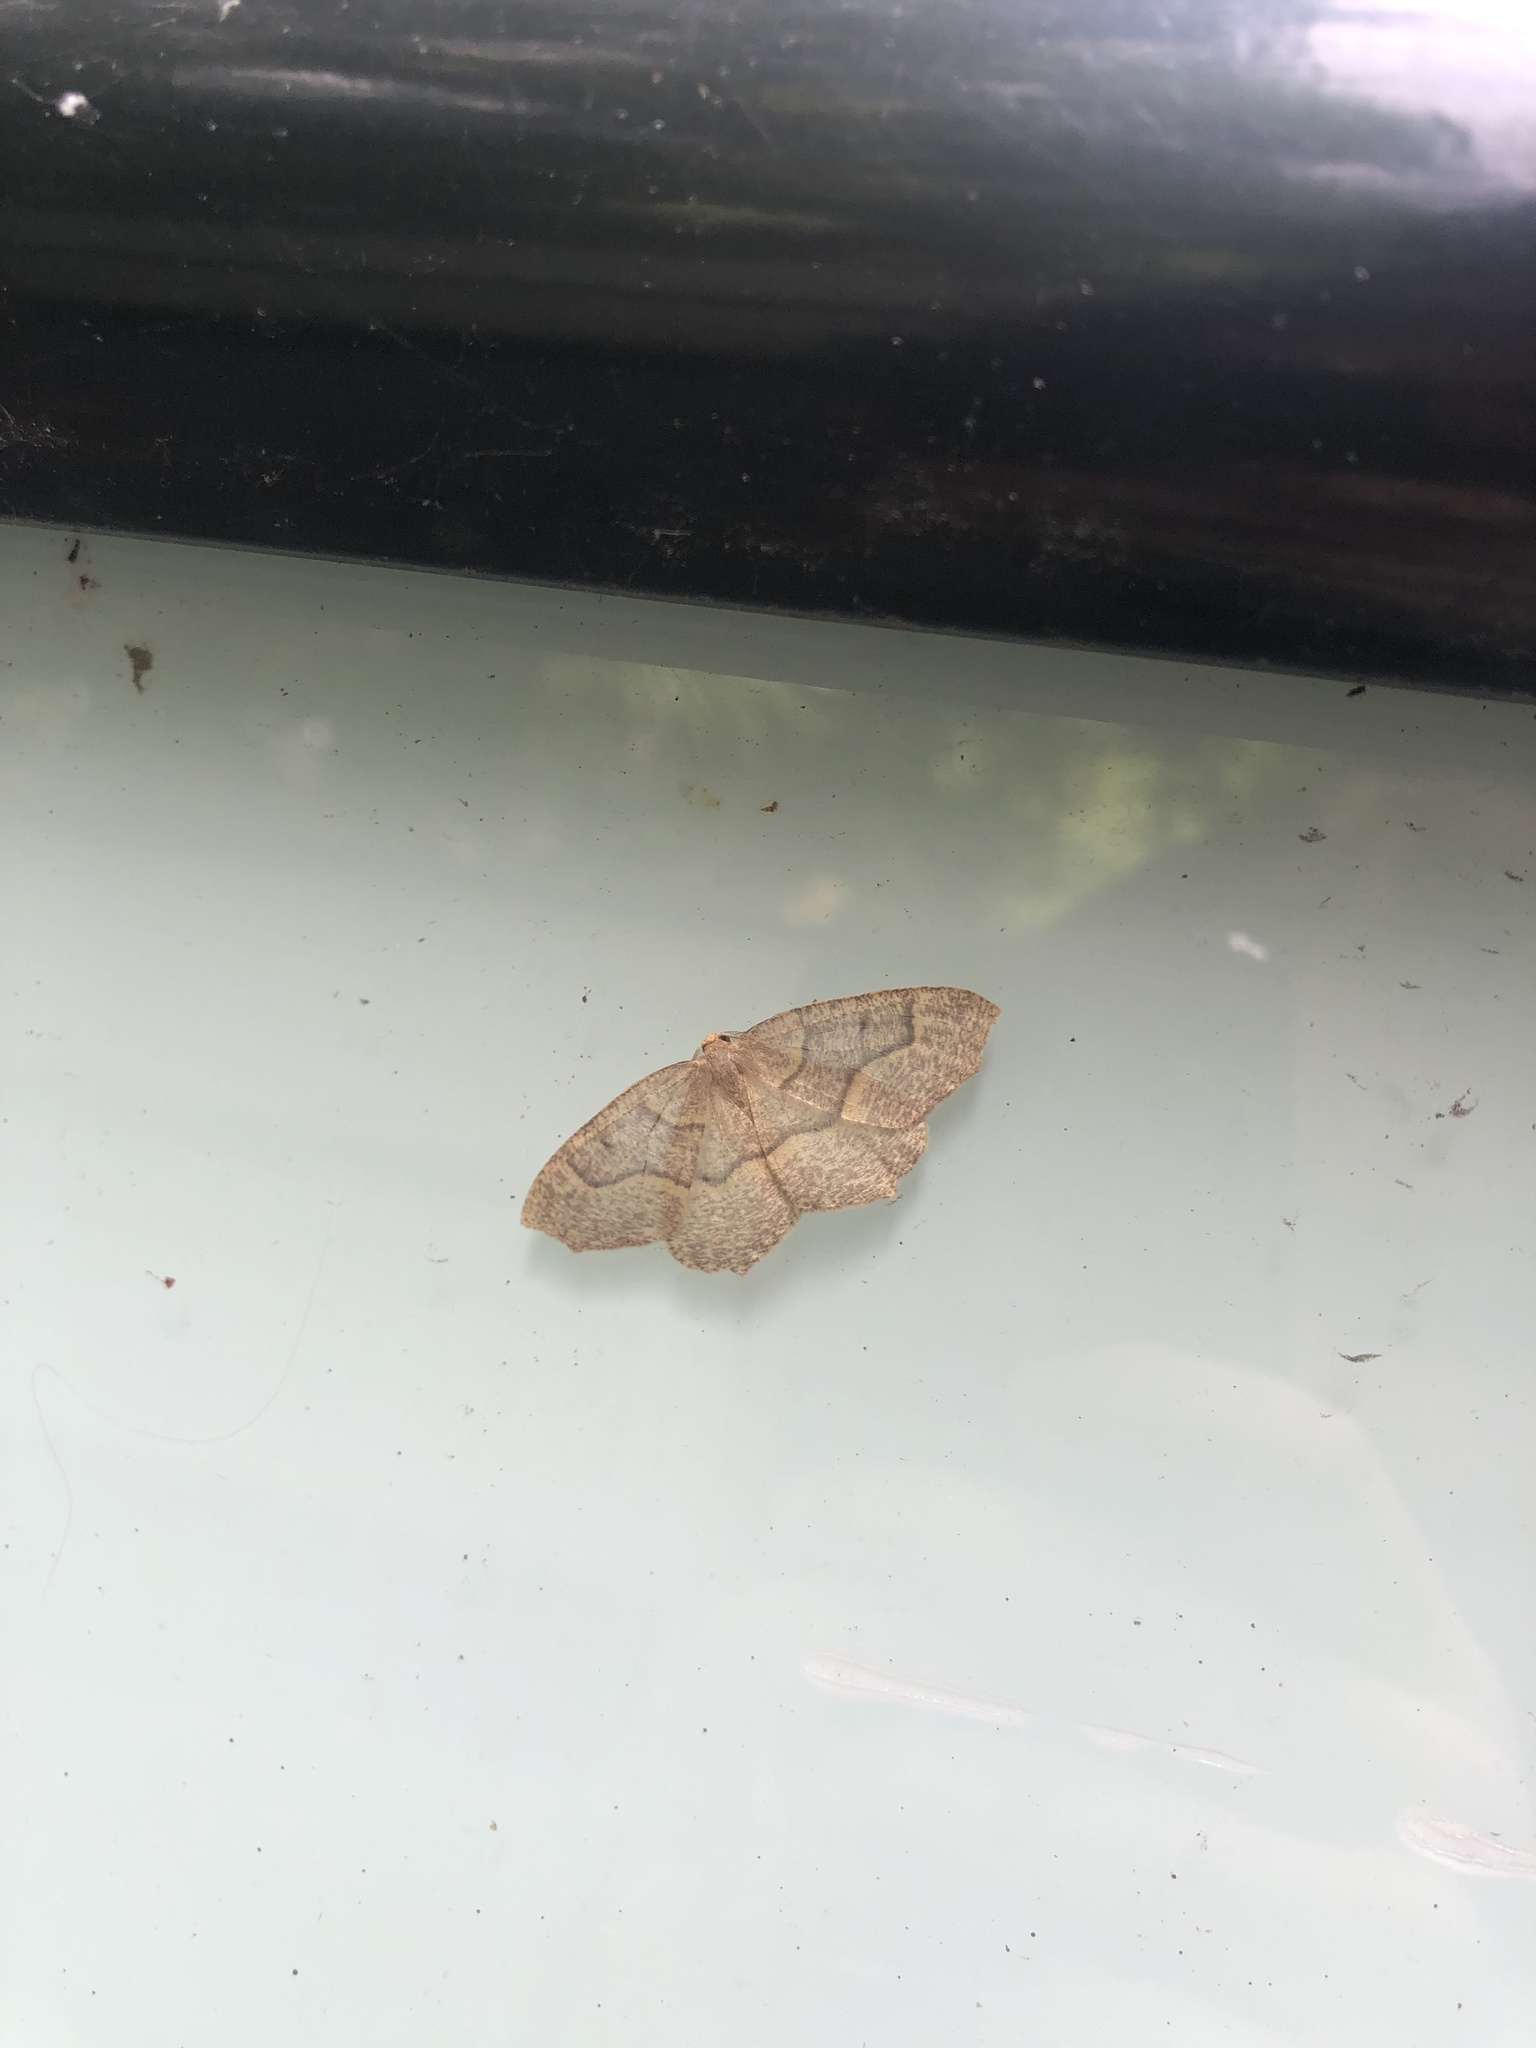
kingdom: Animalia
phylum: Arthropoda
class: Insecta
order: Lepidoptera
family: Geometridae
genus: Lambdina
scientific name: Lambdina fiscellaria
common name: Hemlock looper
